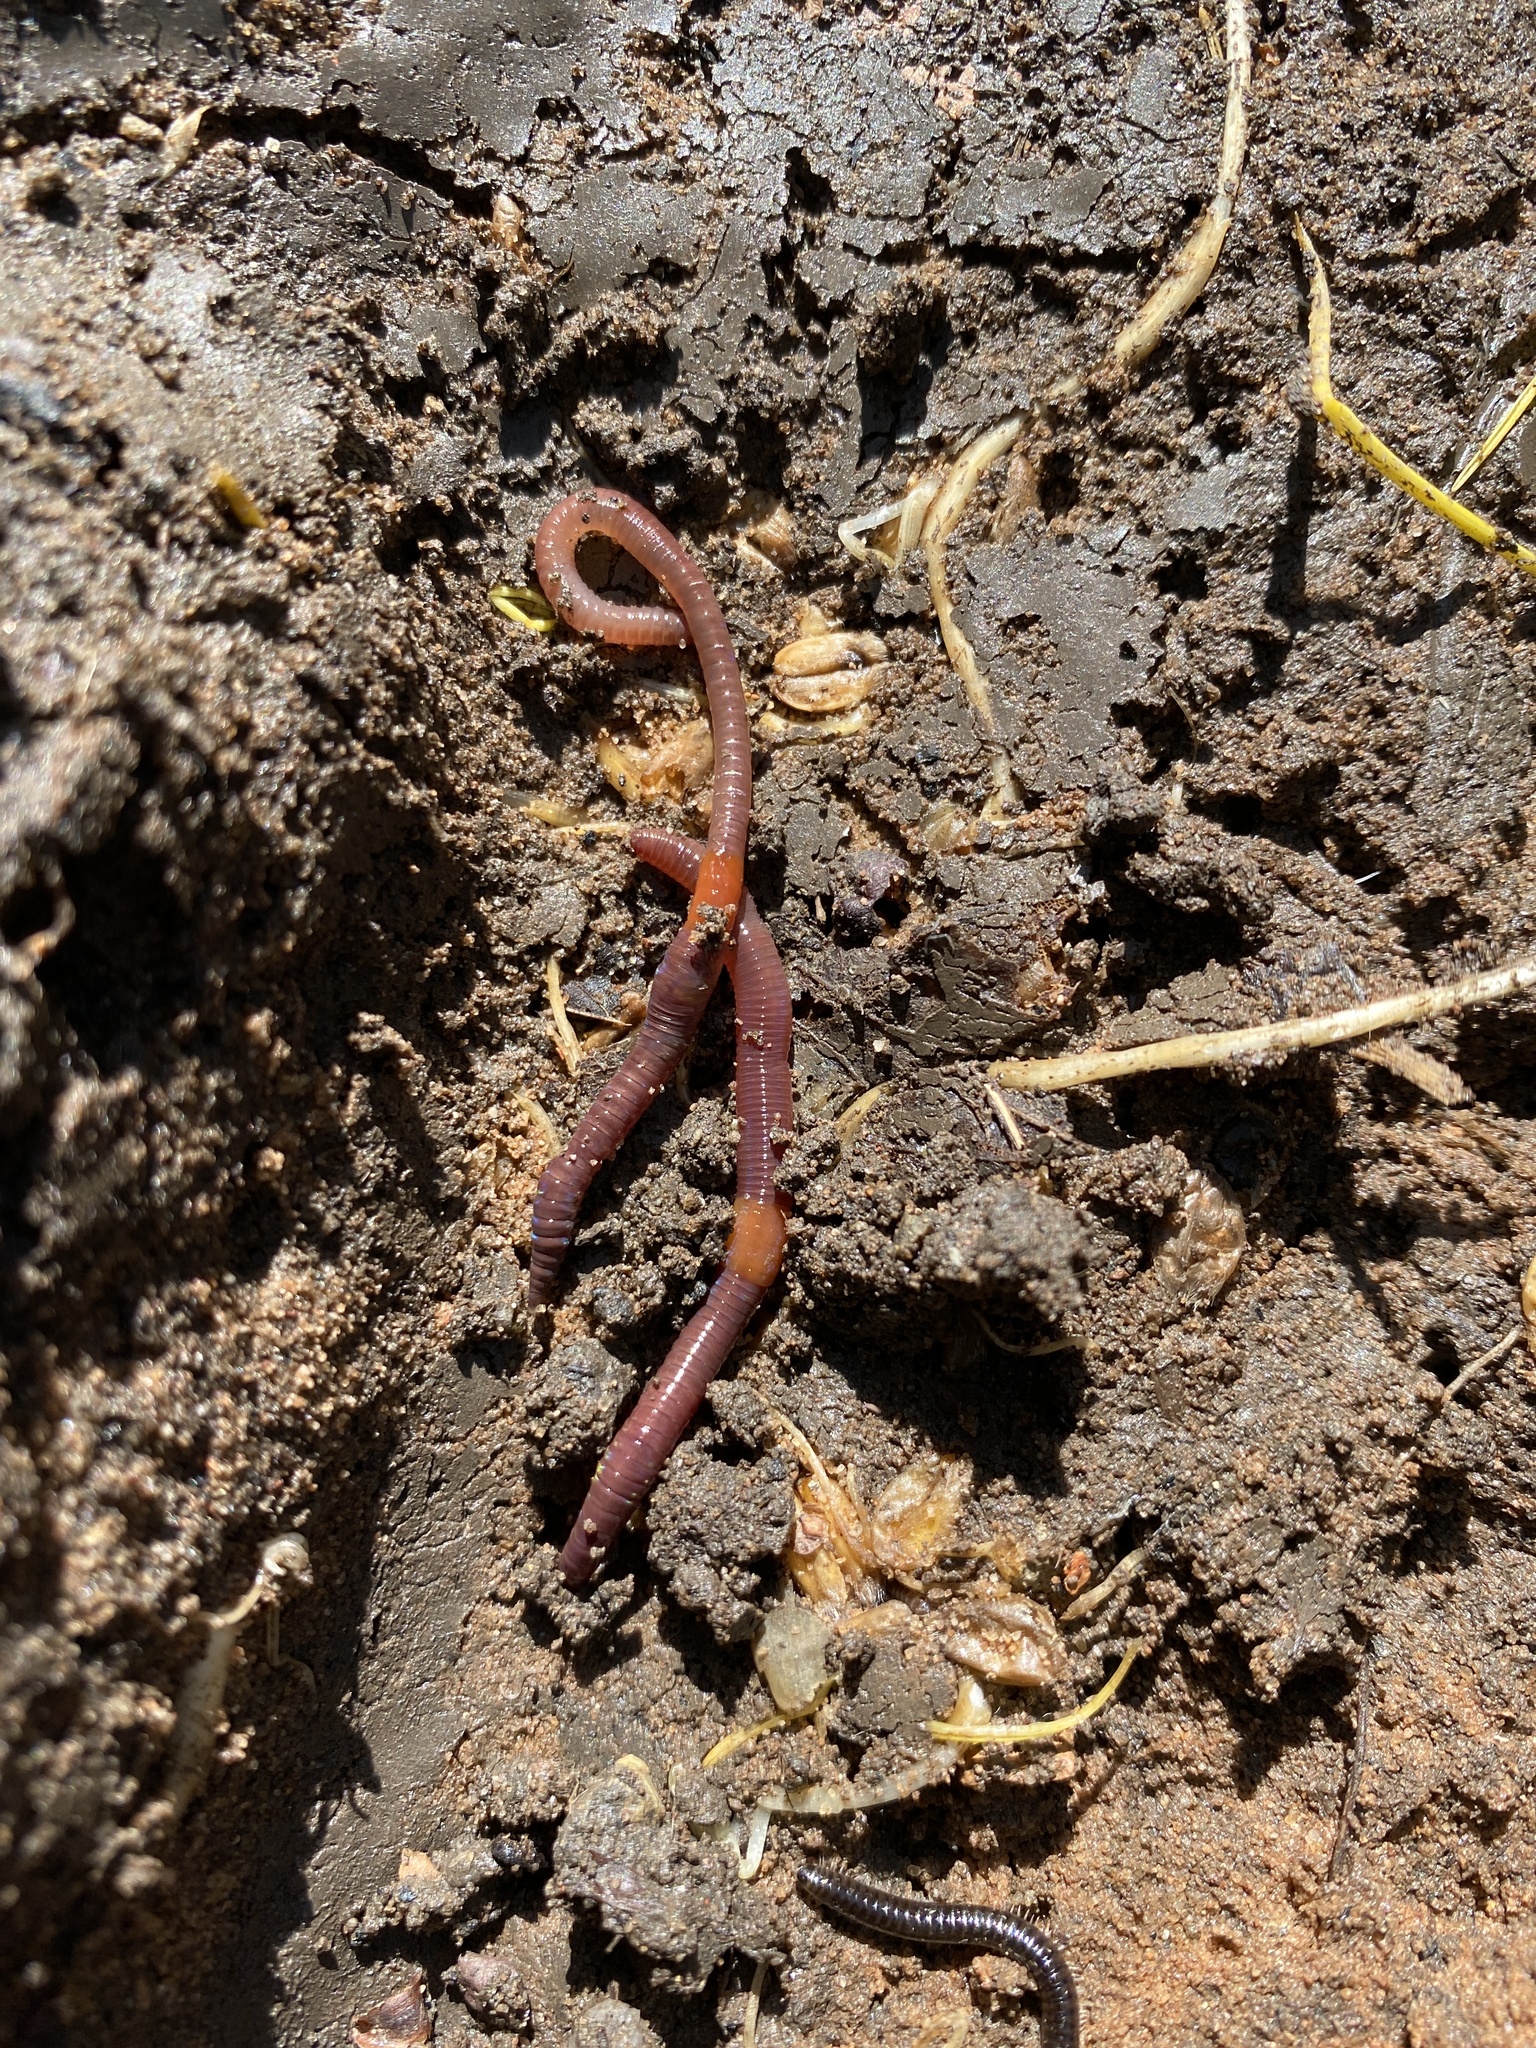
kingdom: Animalia
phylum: Annelida
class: Clitellata
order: Crassiclitellata
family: Lumbricidae
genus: Lumbricus
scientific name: Lumbricus terrestris
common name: Common earthworm
